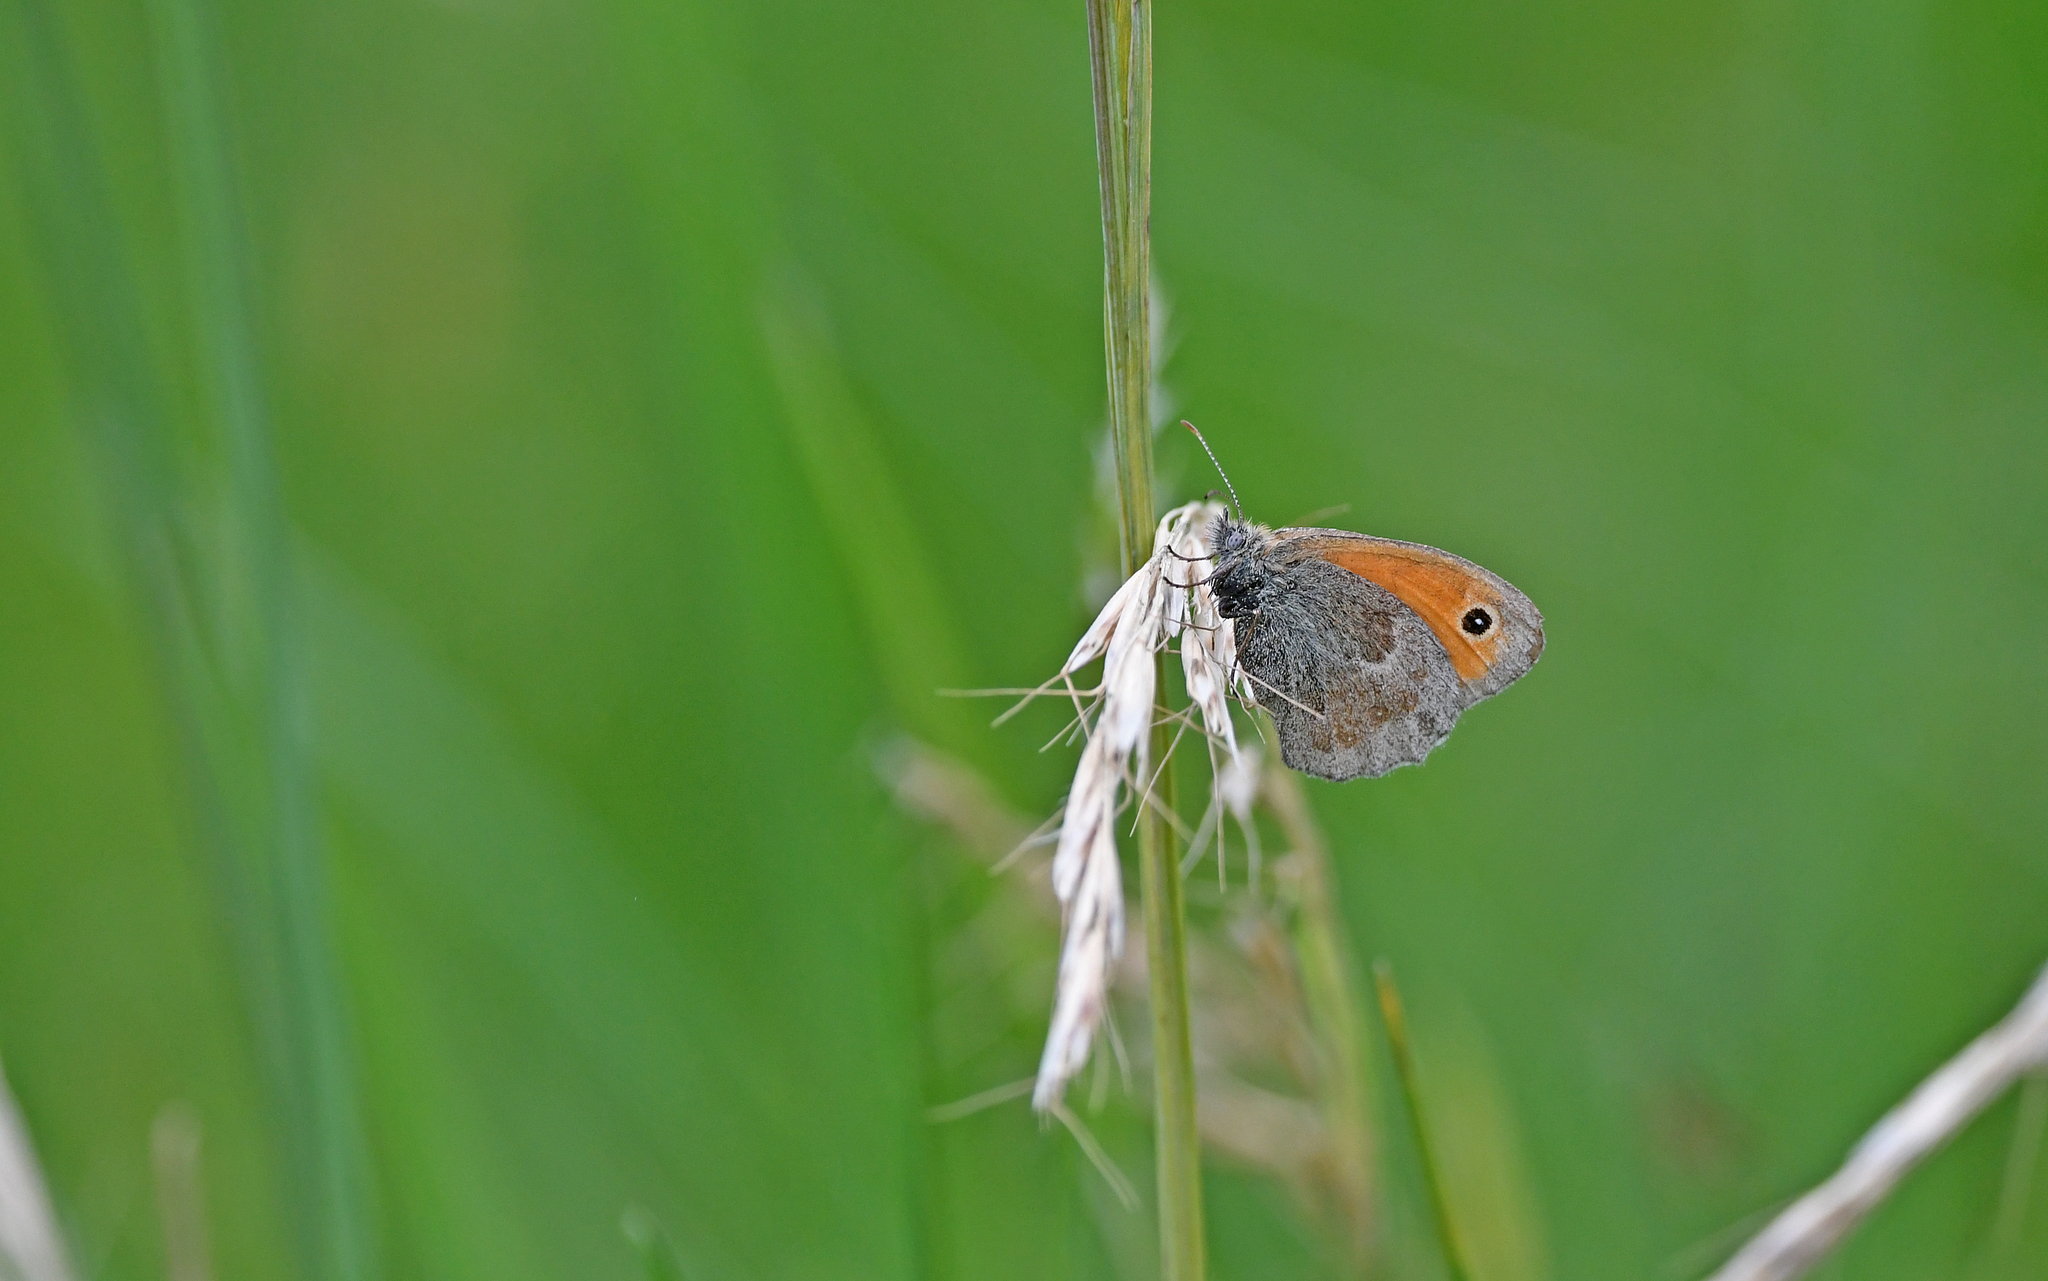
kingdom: Animalia
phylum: Arthropoda
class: Insecta
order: Lepidoptera
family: Nymphalidae
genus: Coenonympha
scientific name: Coenonympha pamphilus
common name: Small heath
